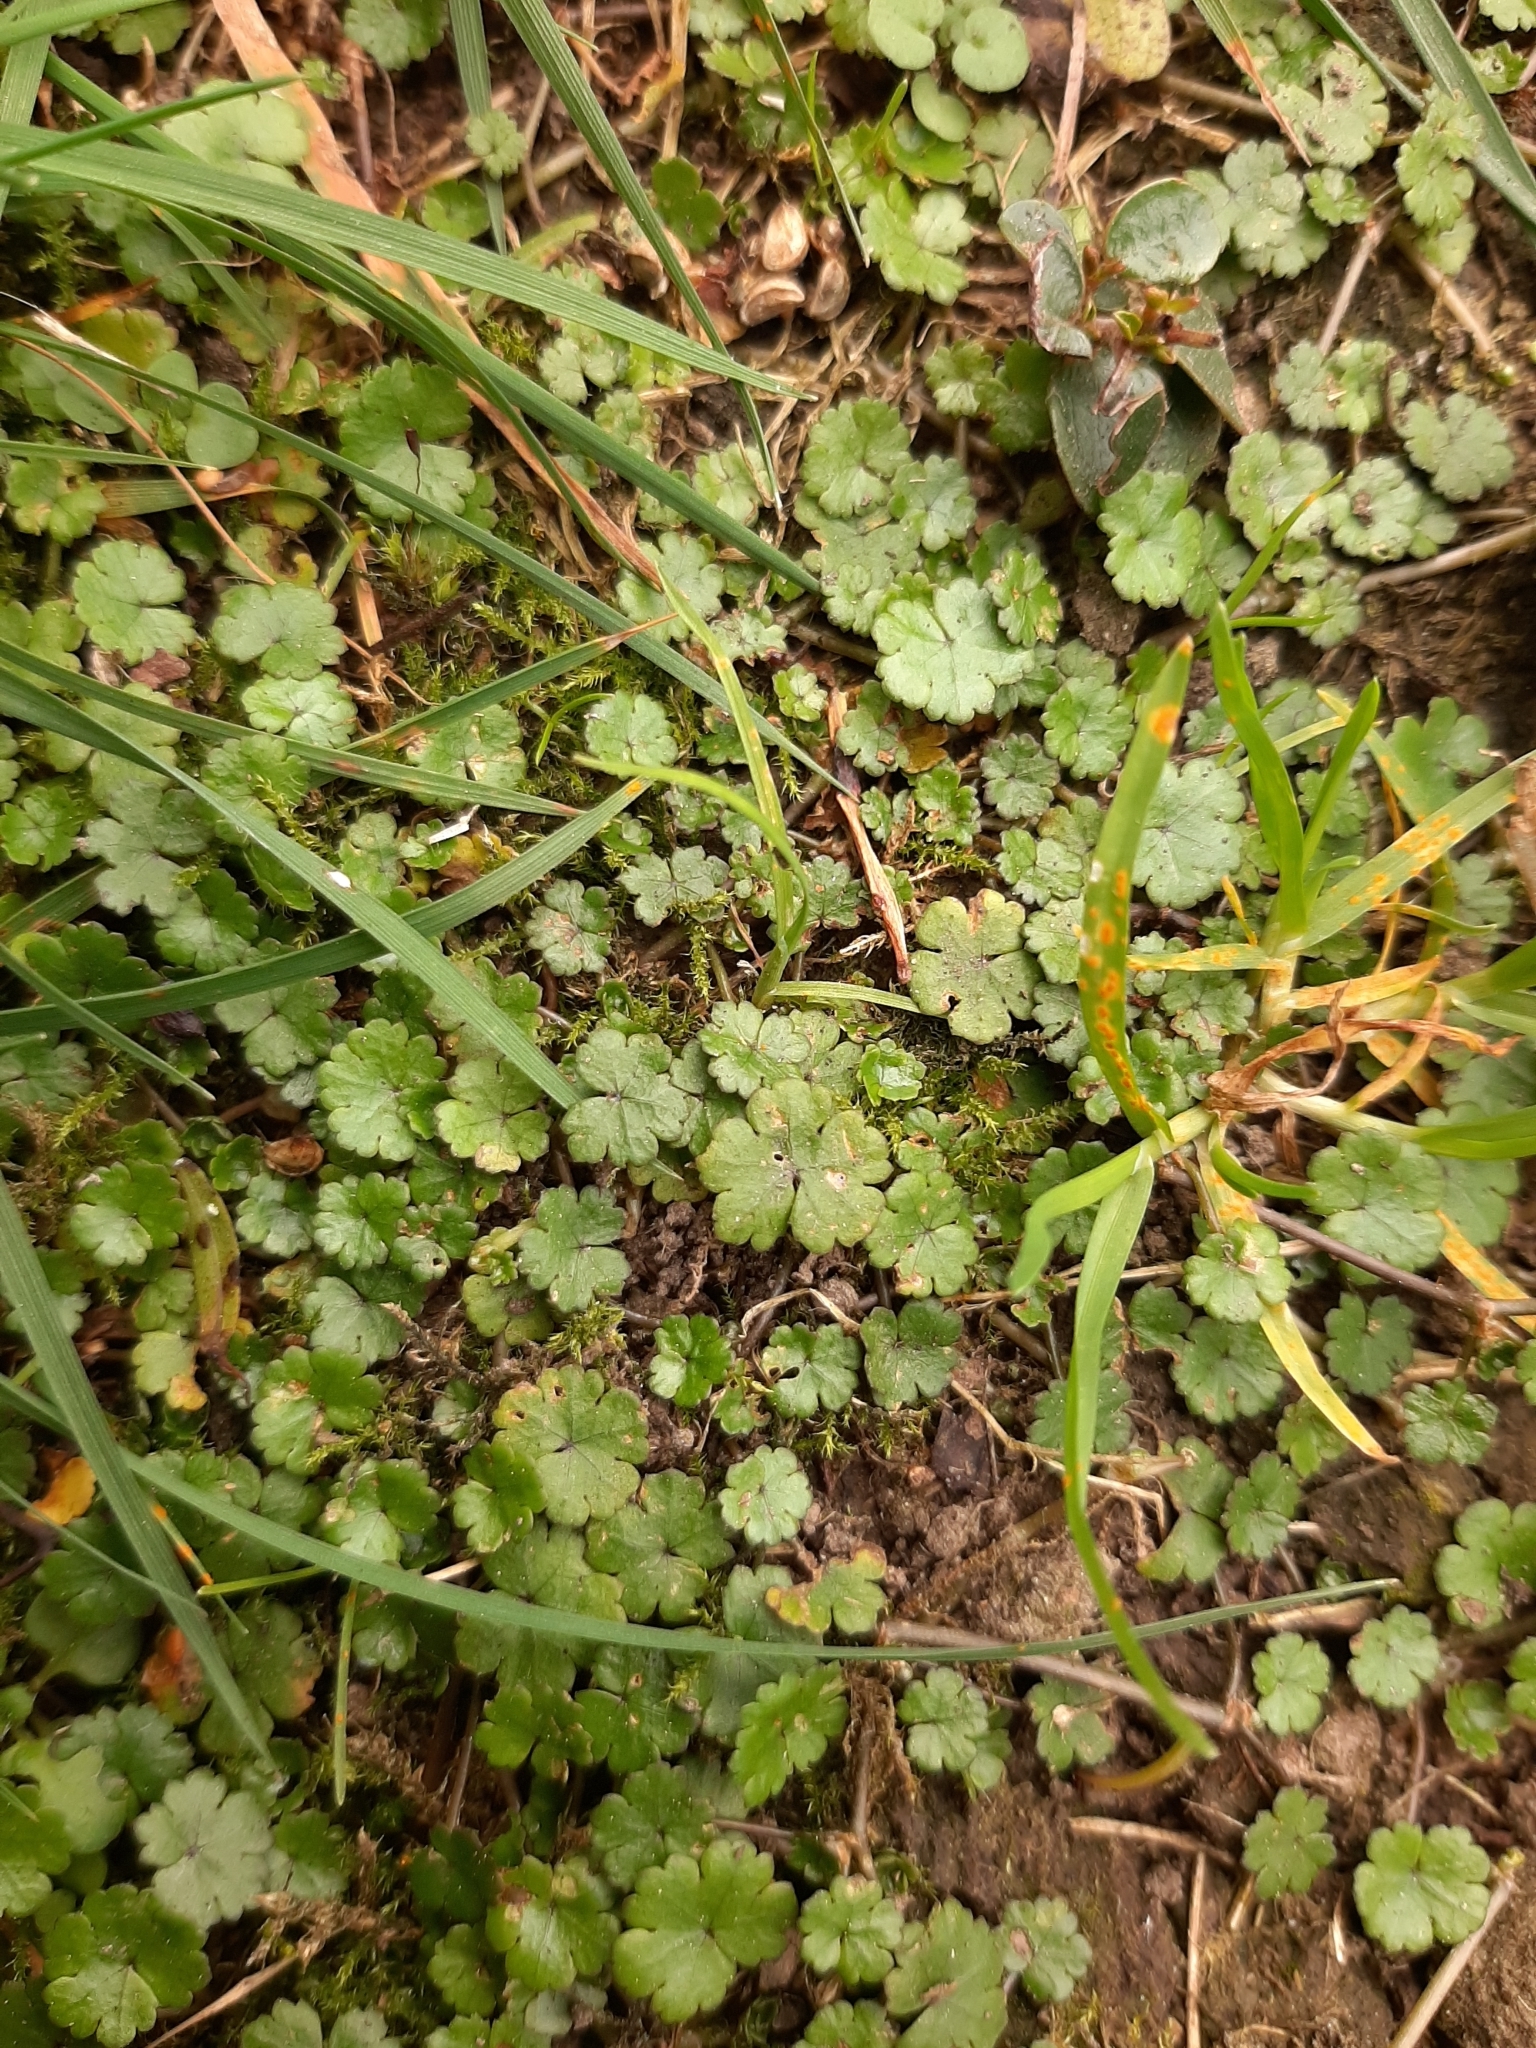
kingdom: Plantae
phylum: Tracheophyta
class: Magnoliopsida
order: Apiales
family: Araliaceae
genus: Hydrocotyle
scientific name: Hydrocotyle microphylla
